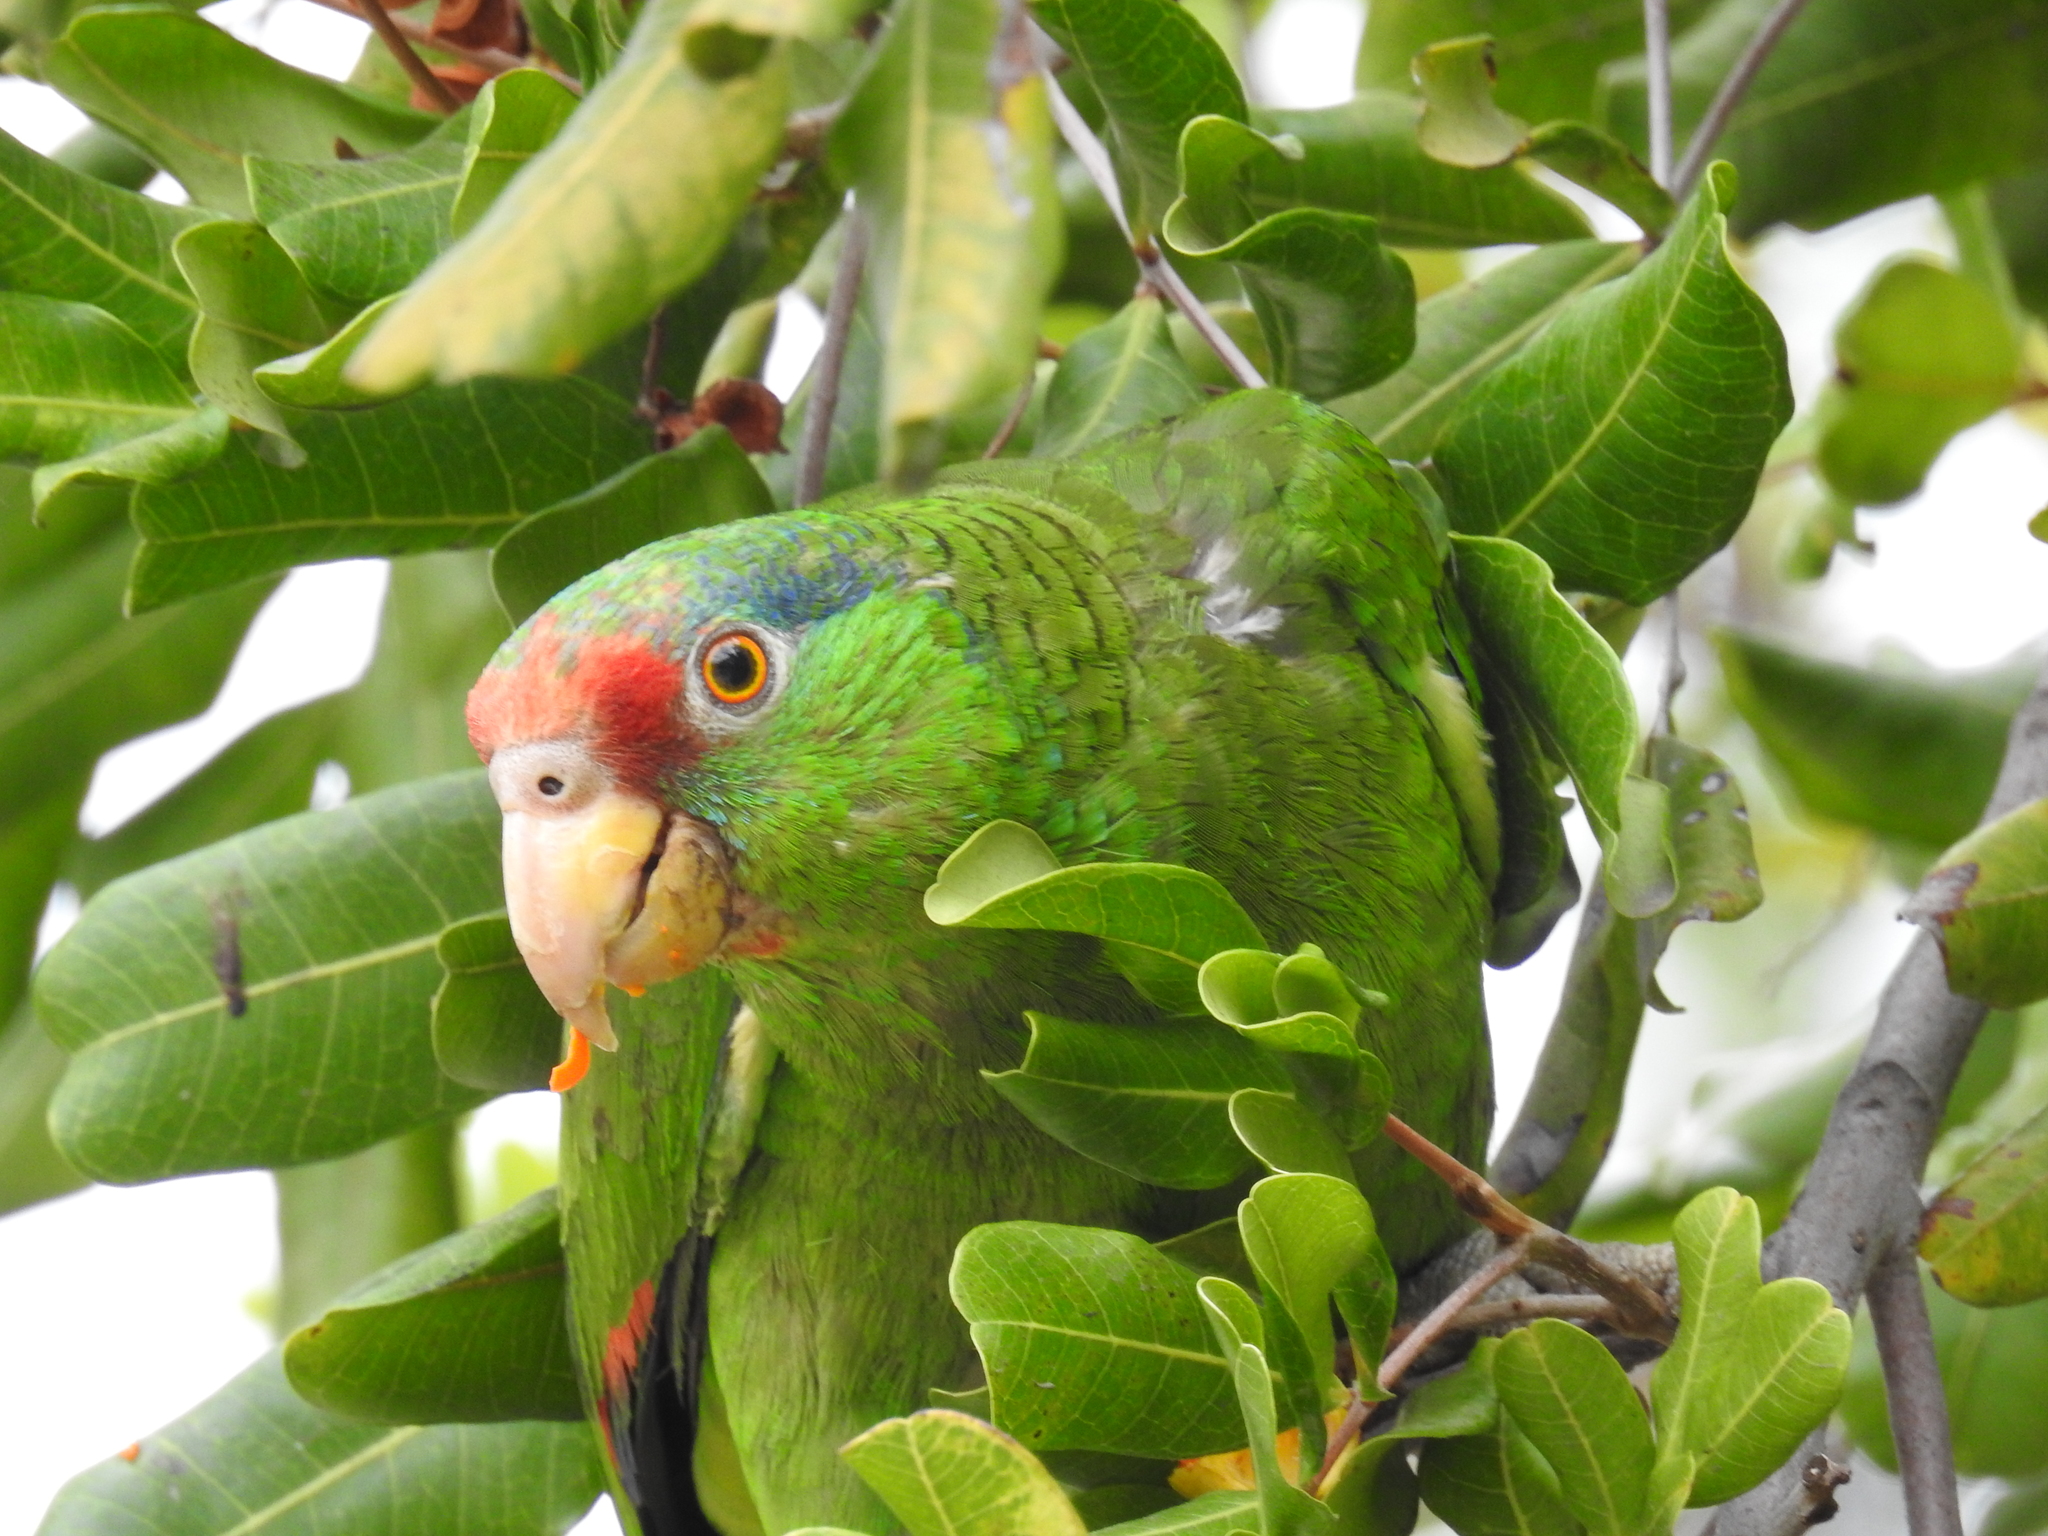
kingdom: Animalia
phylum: Chordata
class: Aves
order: Psittaciformes
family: Psittacidae
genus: Amazona
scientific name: Amazona viridigenalis
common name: Red-crowned amazon
